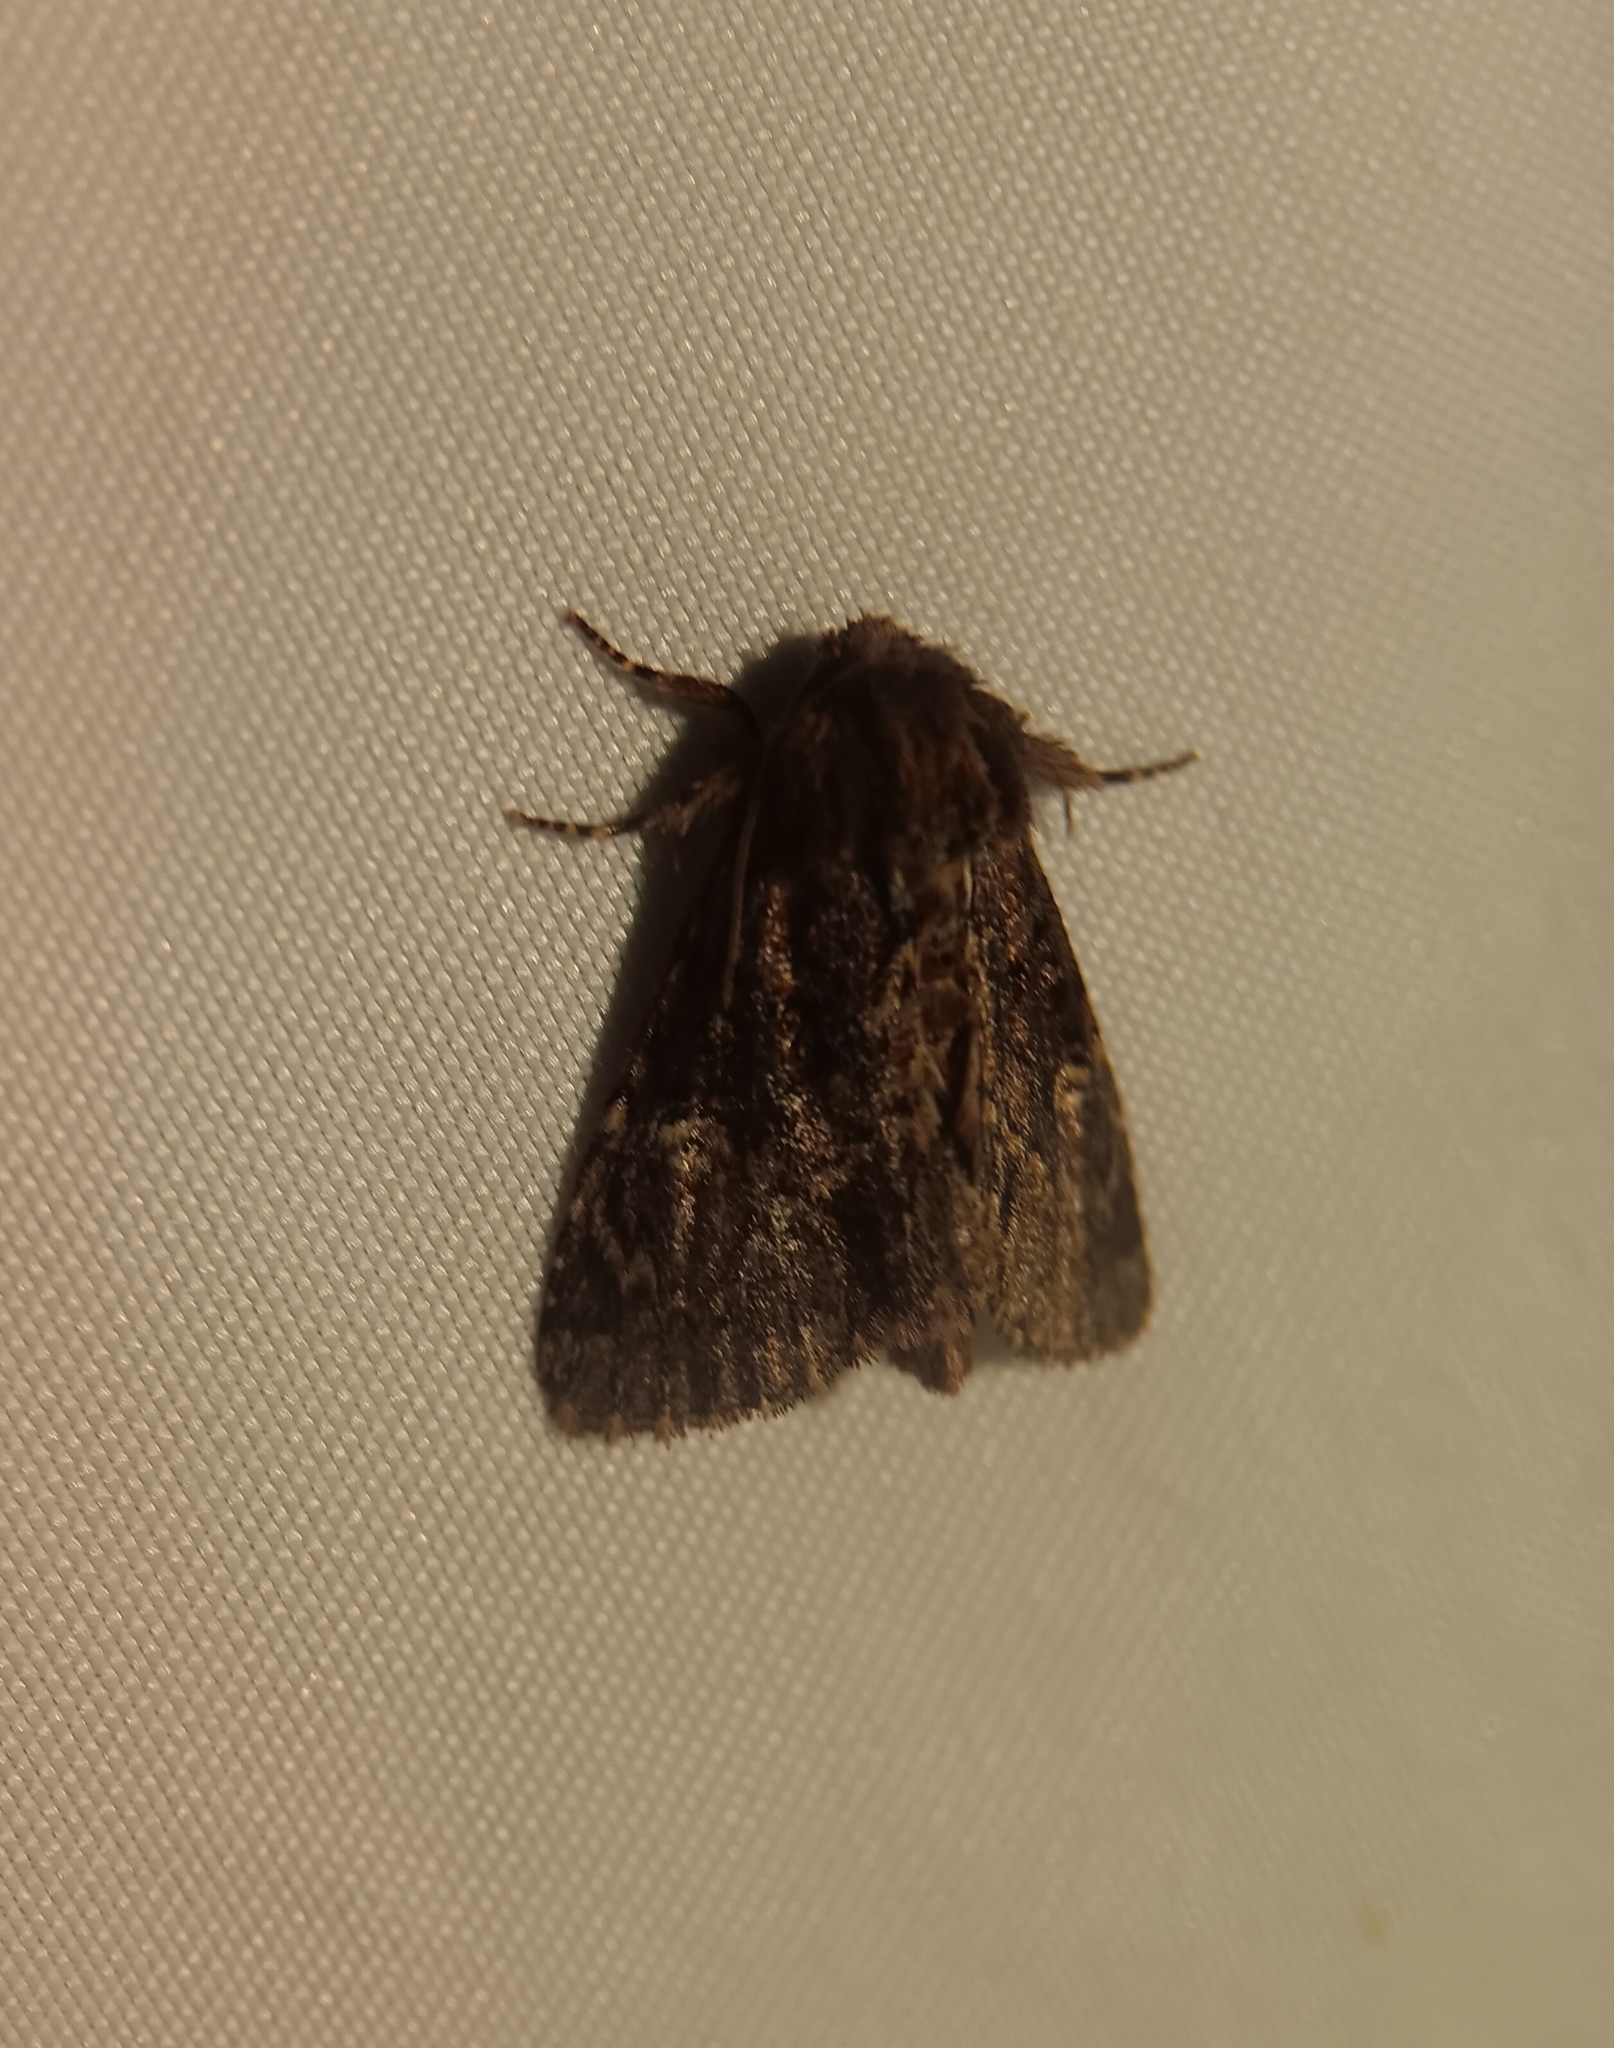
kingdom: Animalia
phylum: Arthropoda
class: Insecta
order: Lepidoptera
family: Noctuidae
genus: Phosphila
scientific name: Phosphila turbulenta
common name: Turbulent phosphila moth
